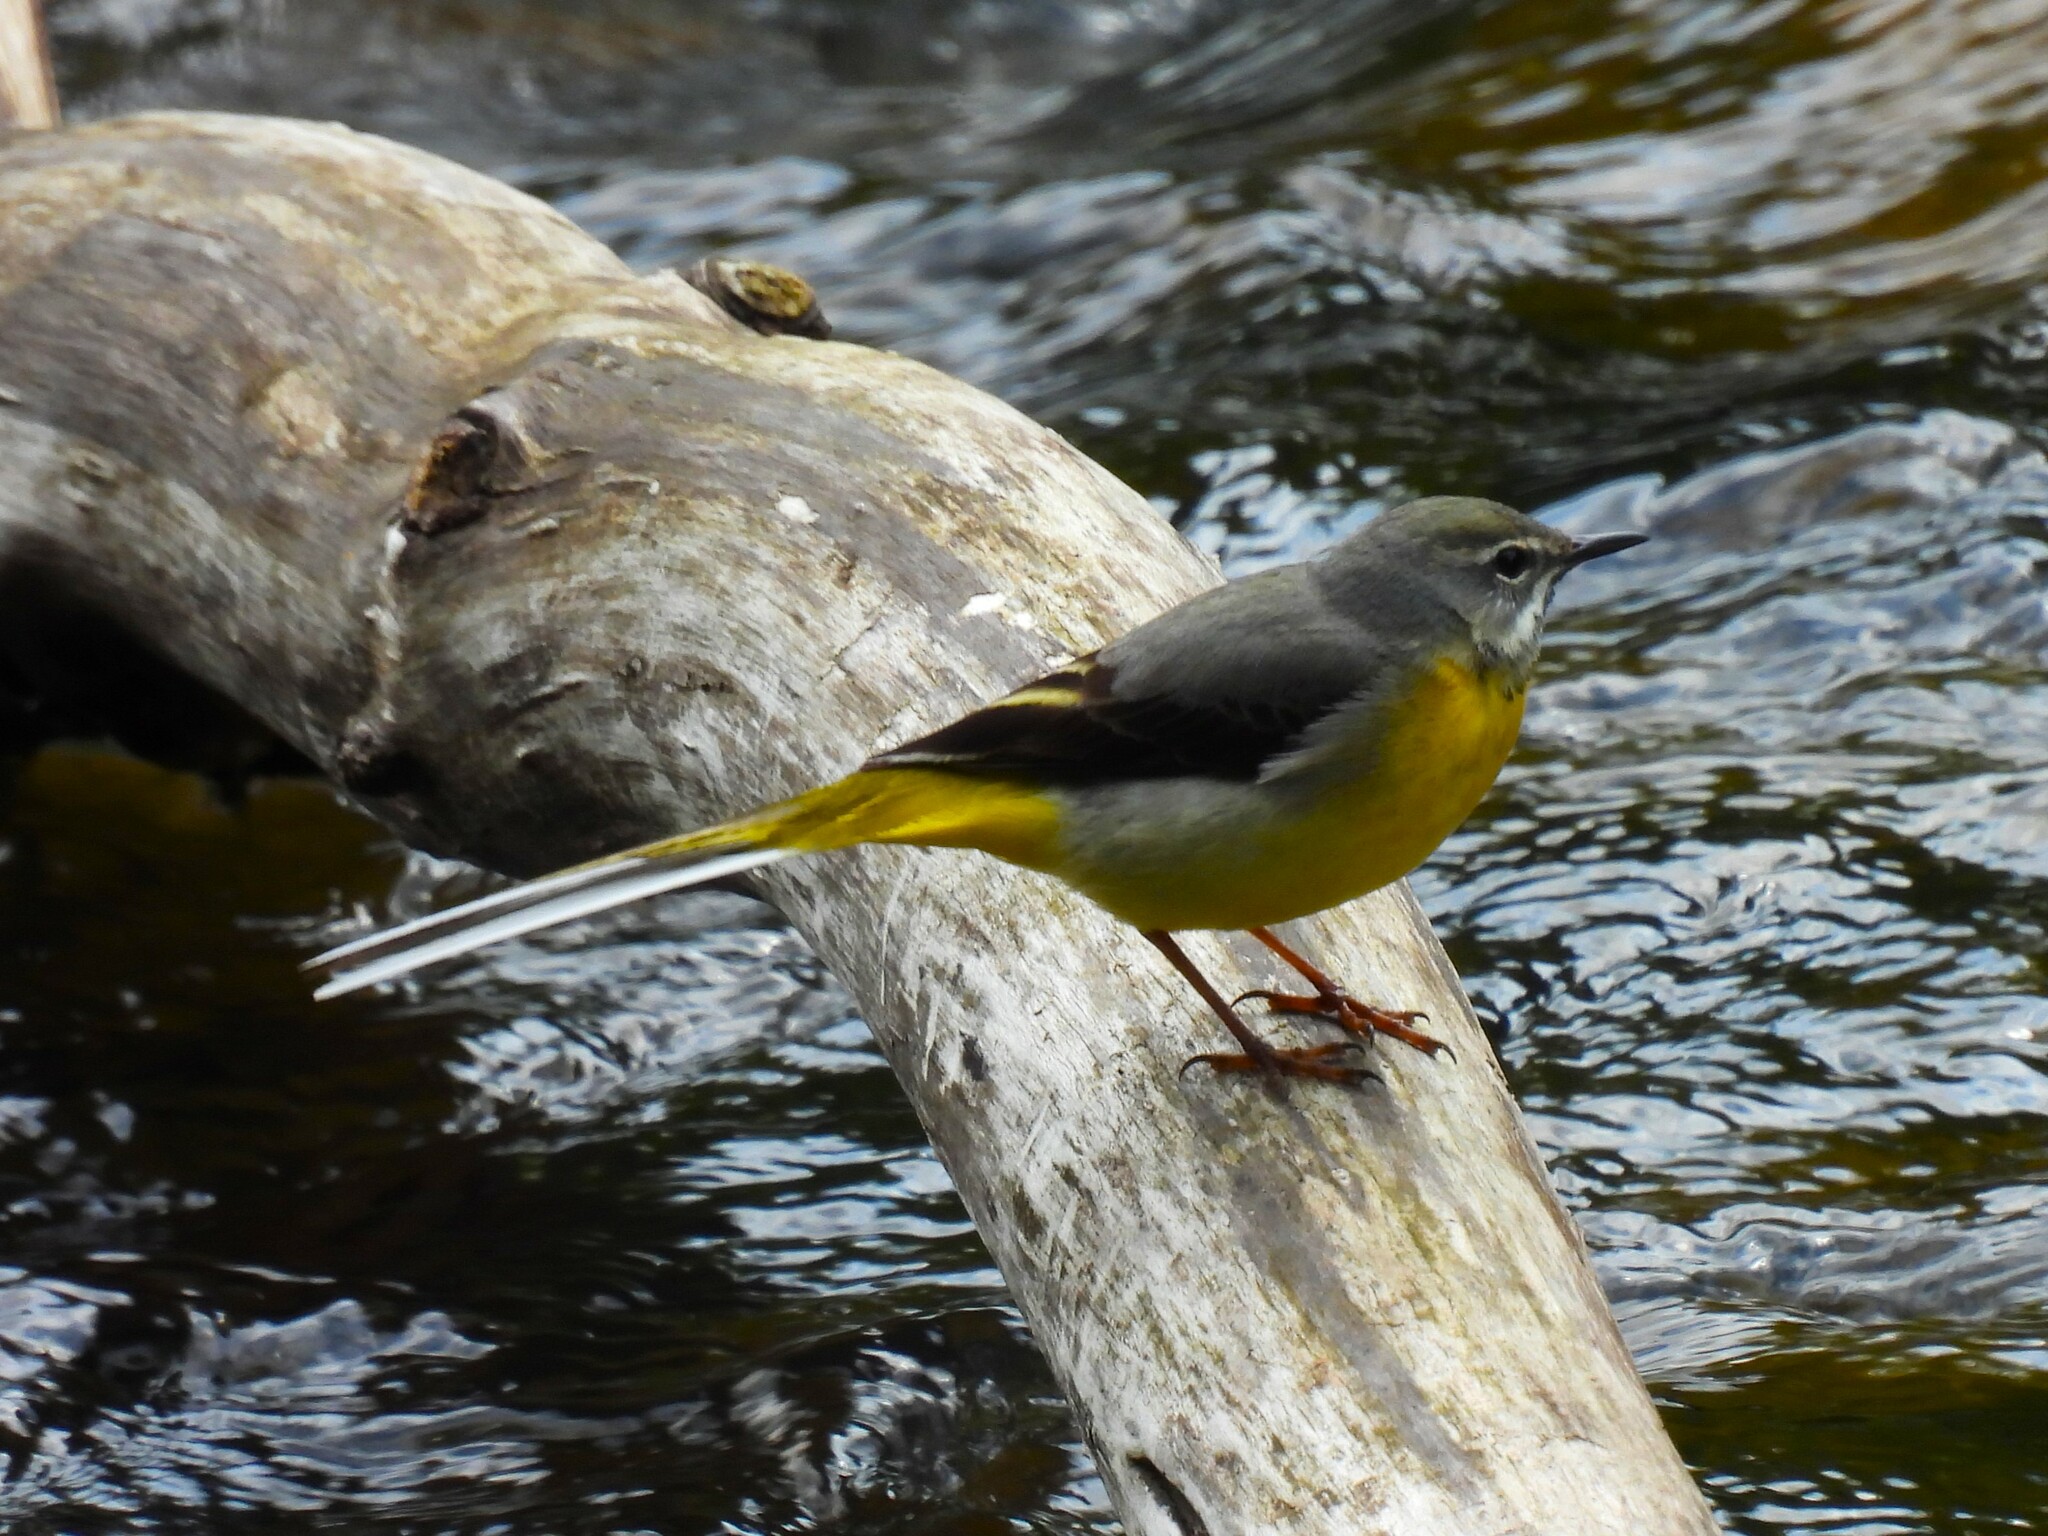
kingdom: Animalia
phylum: Chordata
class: Aves
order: Passeriformes
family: Motacillidae
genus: Motacilla
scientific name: Motacilla cinerea
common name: Grey wagtail
